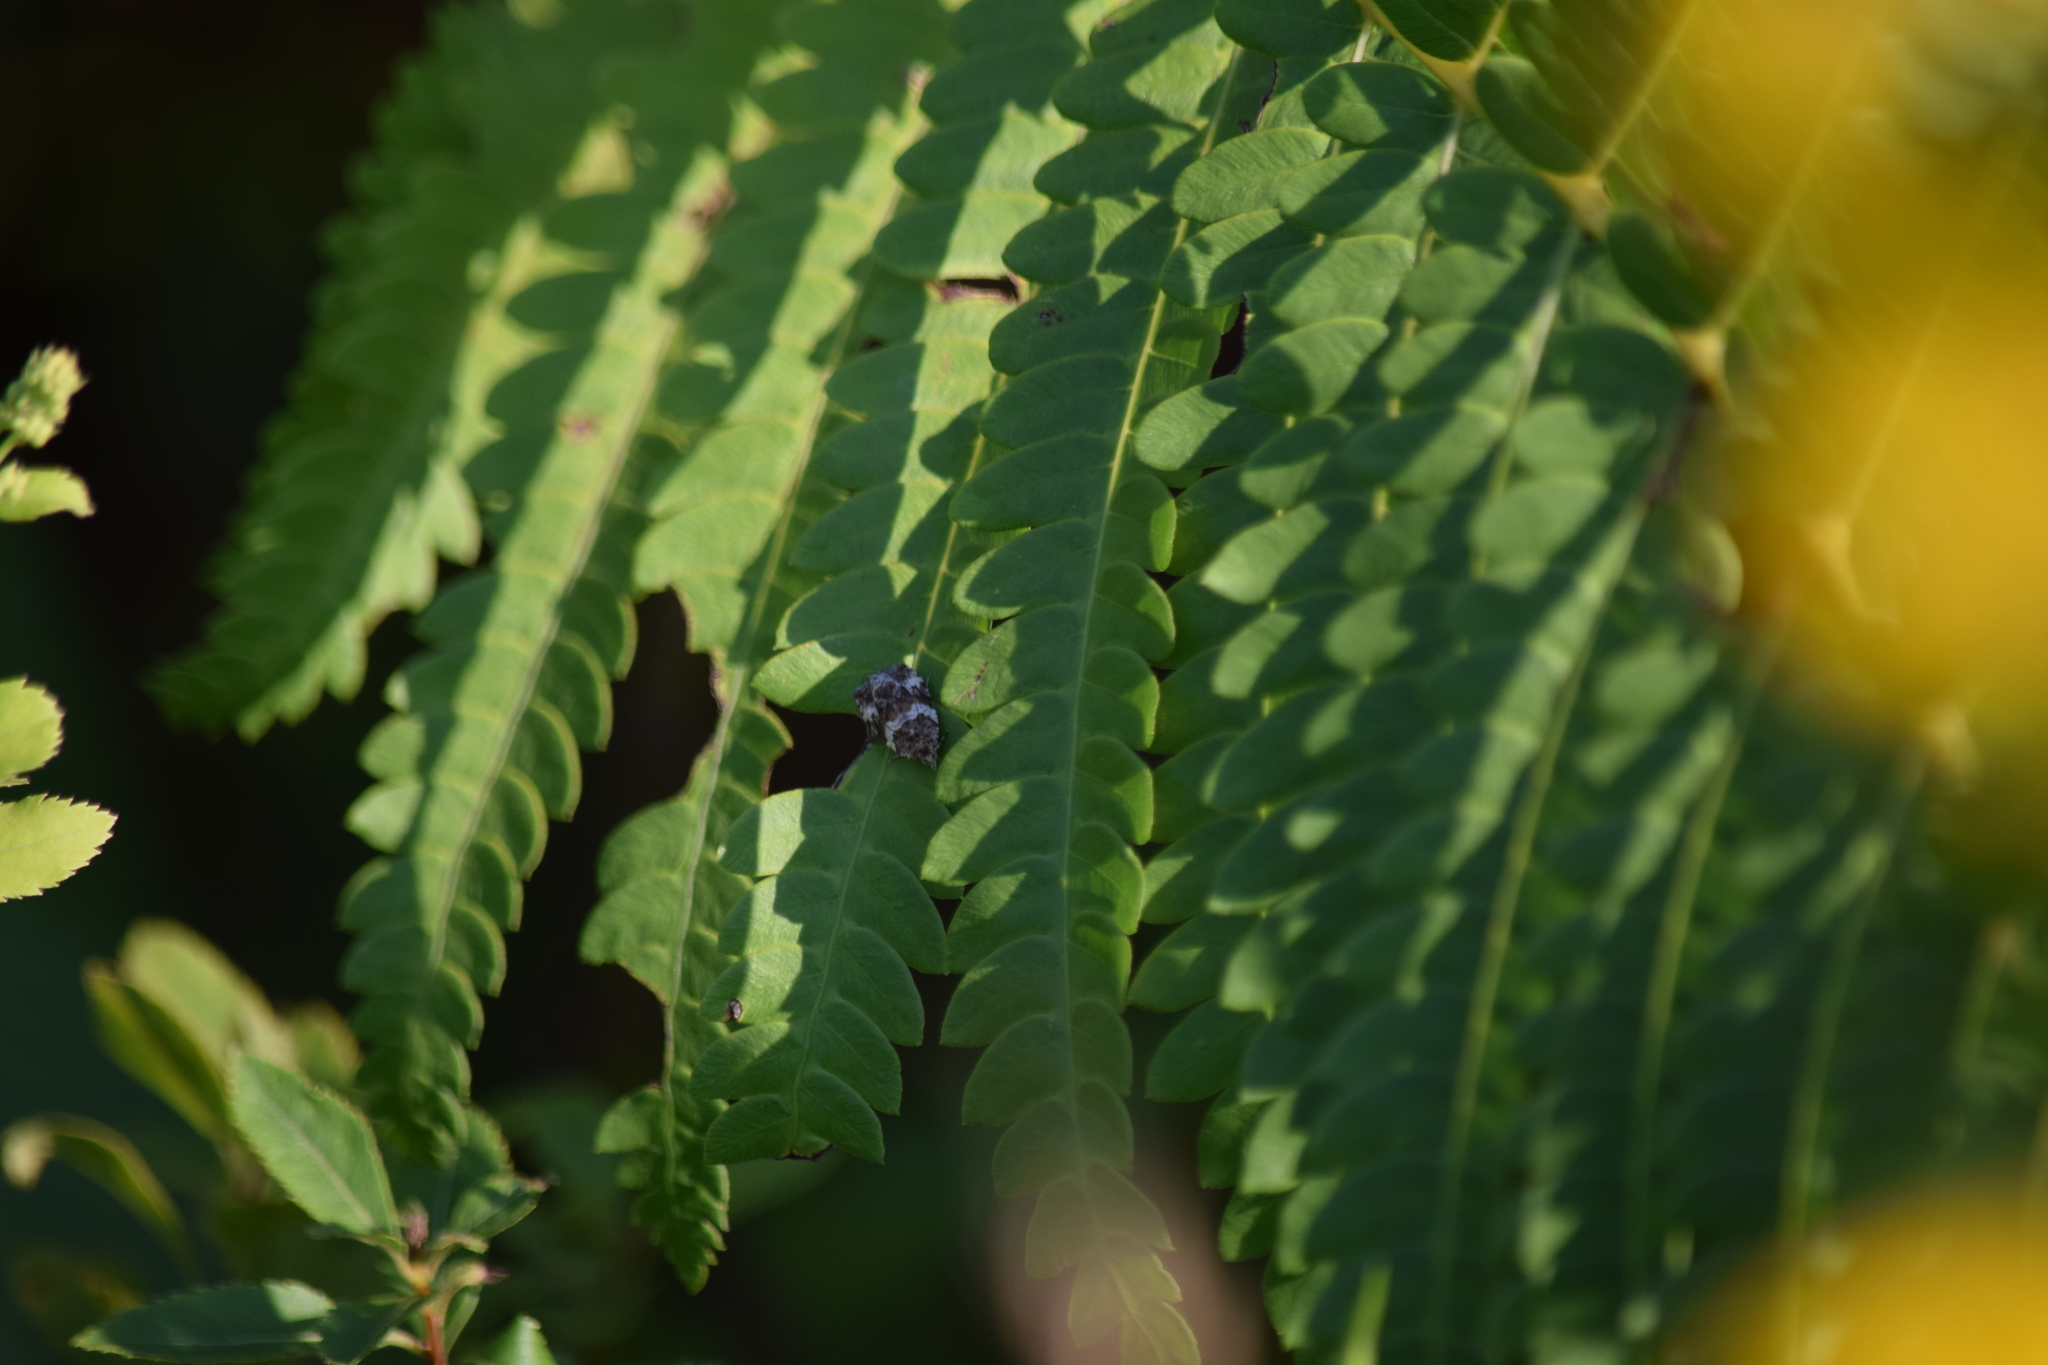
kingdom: Animalia
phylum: Arthropoda
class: Insecta
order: Lepidoptera
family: Tortricidae
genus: Olethreutes
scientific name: Olethreutes fasciatana
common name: Banded olethreutes moth
